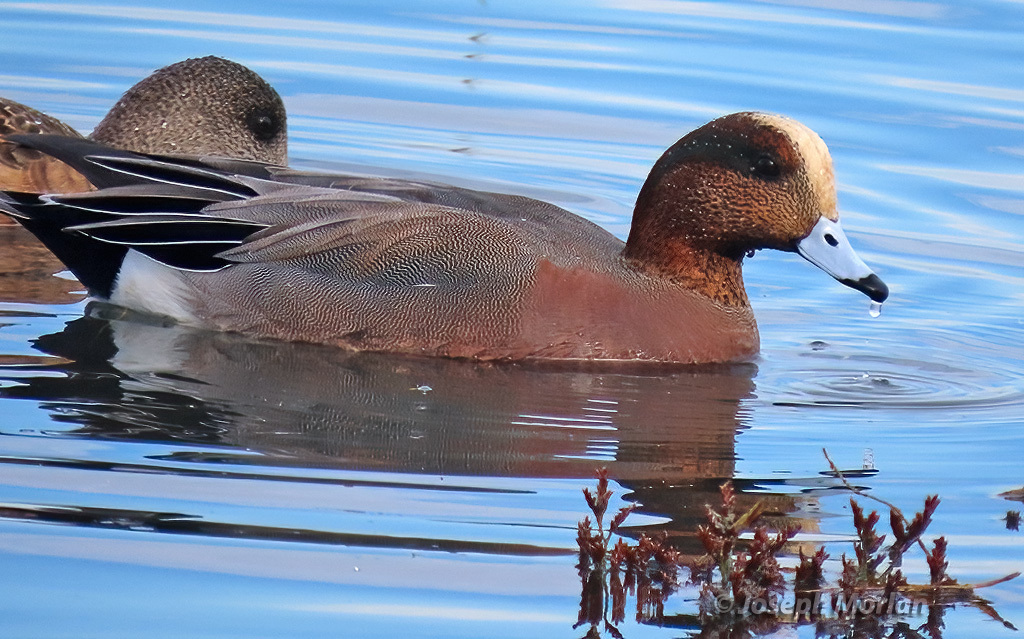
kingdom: Animalia
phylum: Chordata
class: Aves
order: Anseriformes
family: Anatidae
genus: Mareca
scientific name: Mareca
